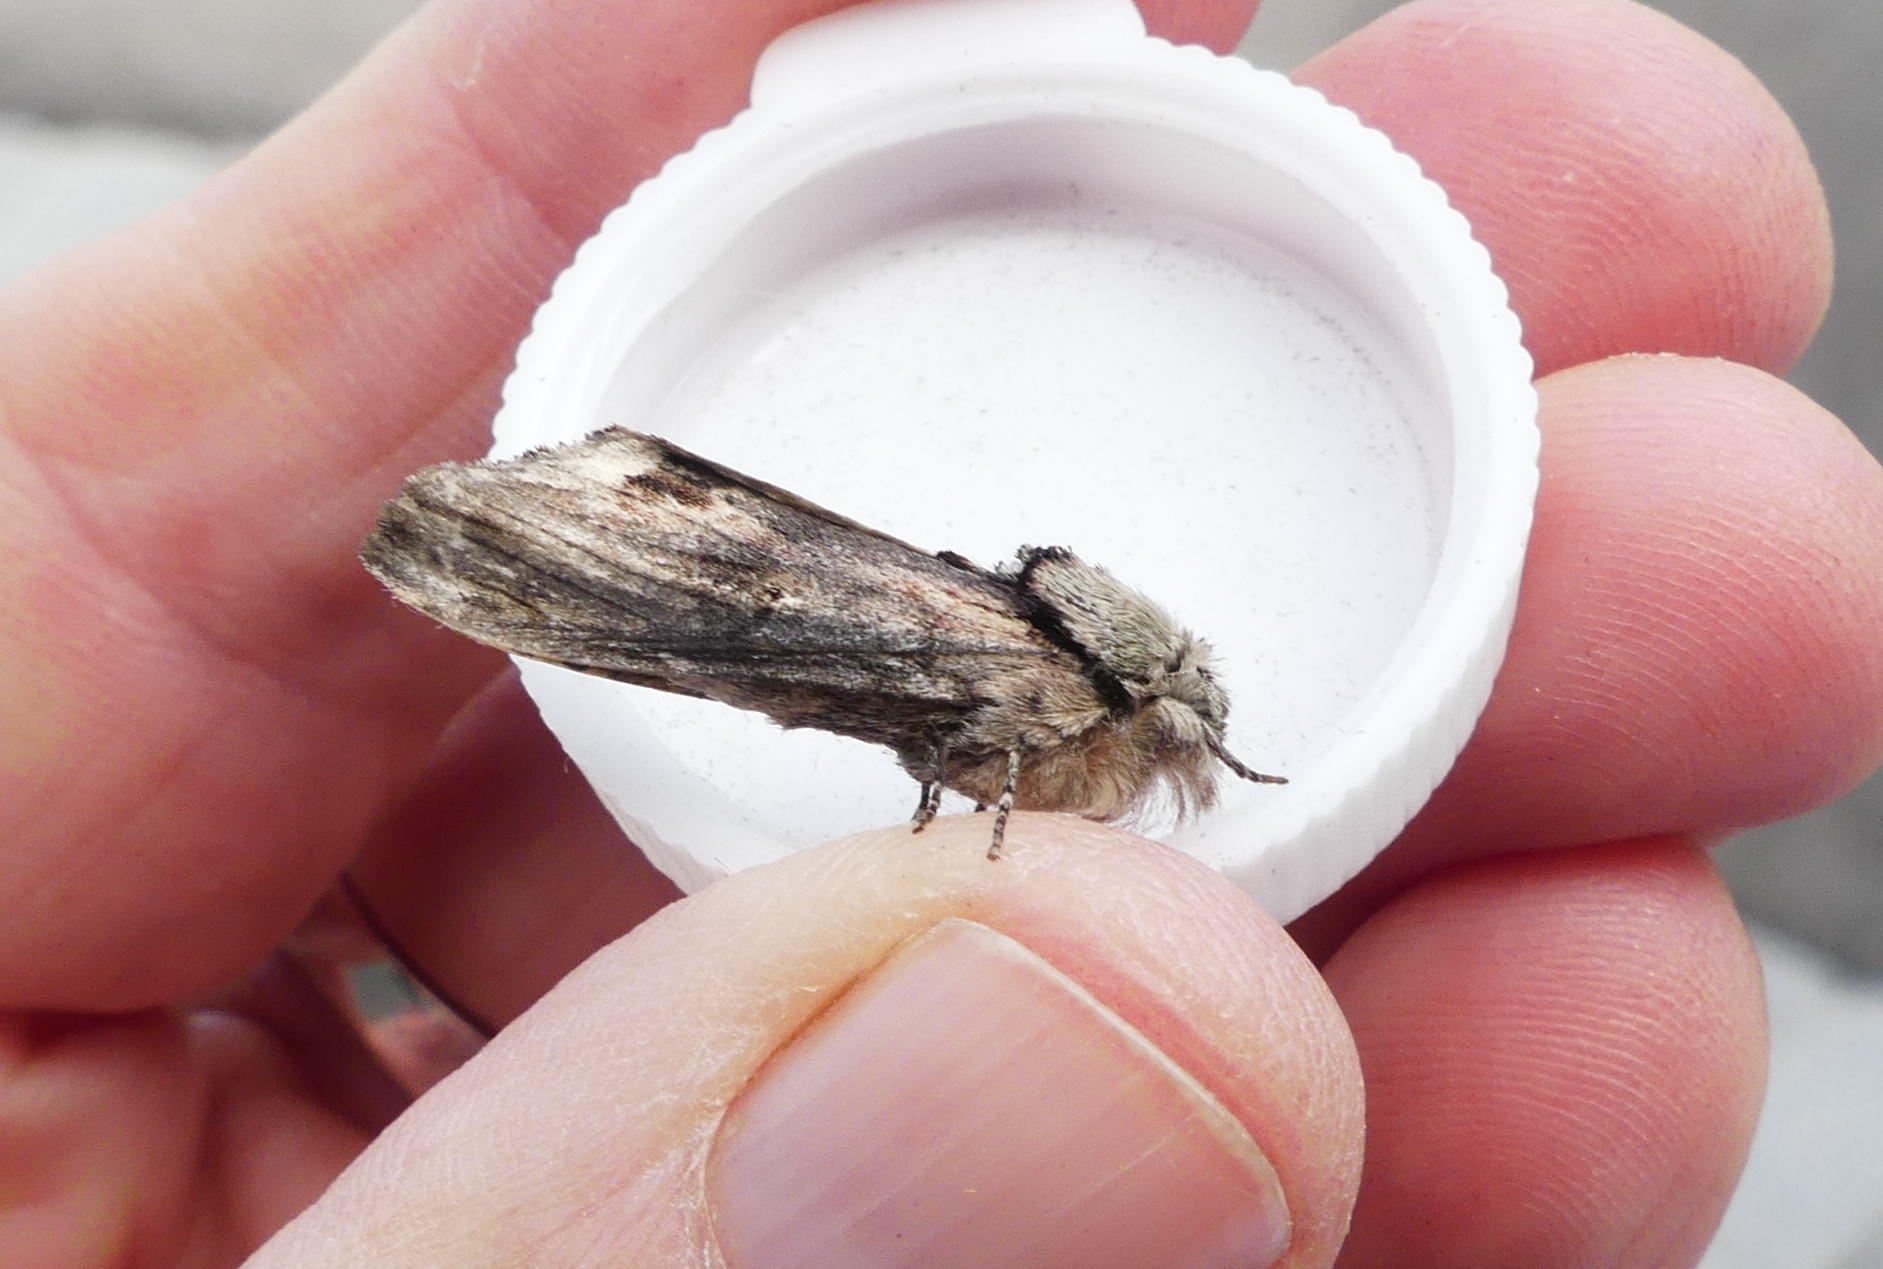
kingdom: Animalia
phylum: Arthropoda
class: Insecta
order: Lepidoptera
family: Notodontidae
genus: Schizura
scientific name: Schizura
